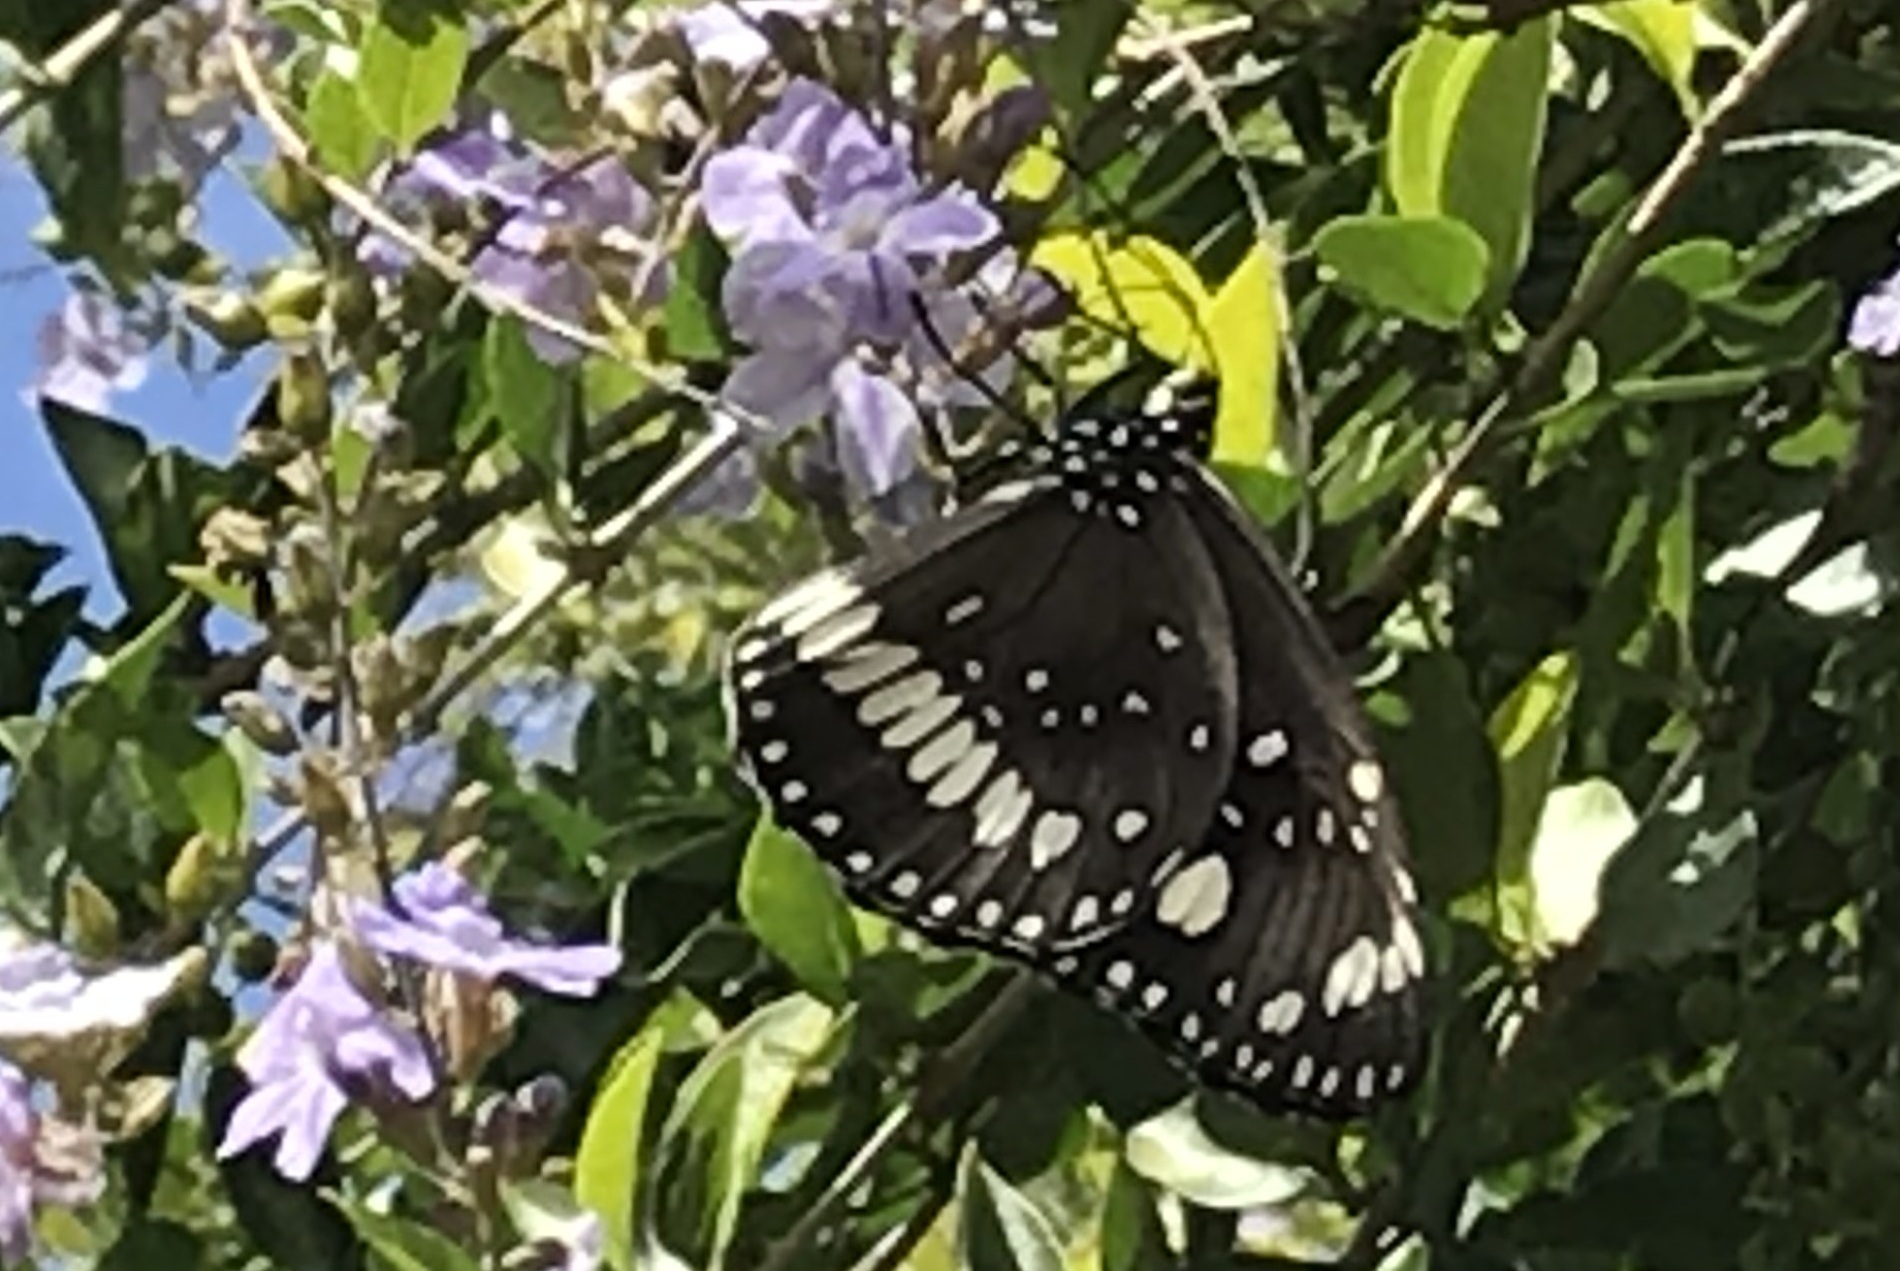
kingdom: Animalia
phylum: Arthropoda
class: Insecta
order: Lepidoptera
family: Nymphalidae
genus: Euploea
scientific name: Euploea core
